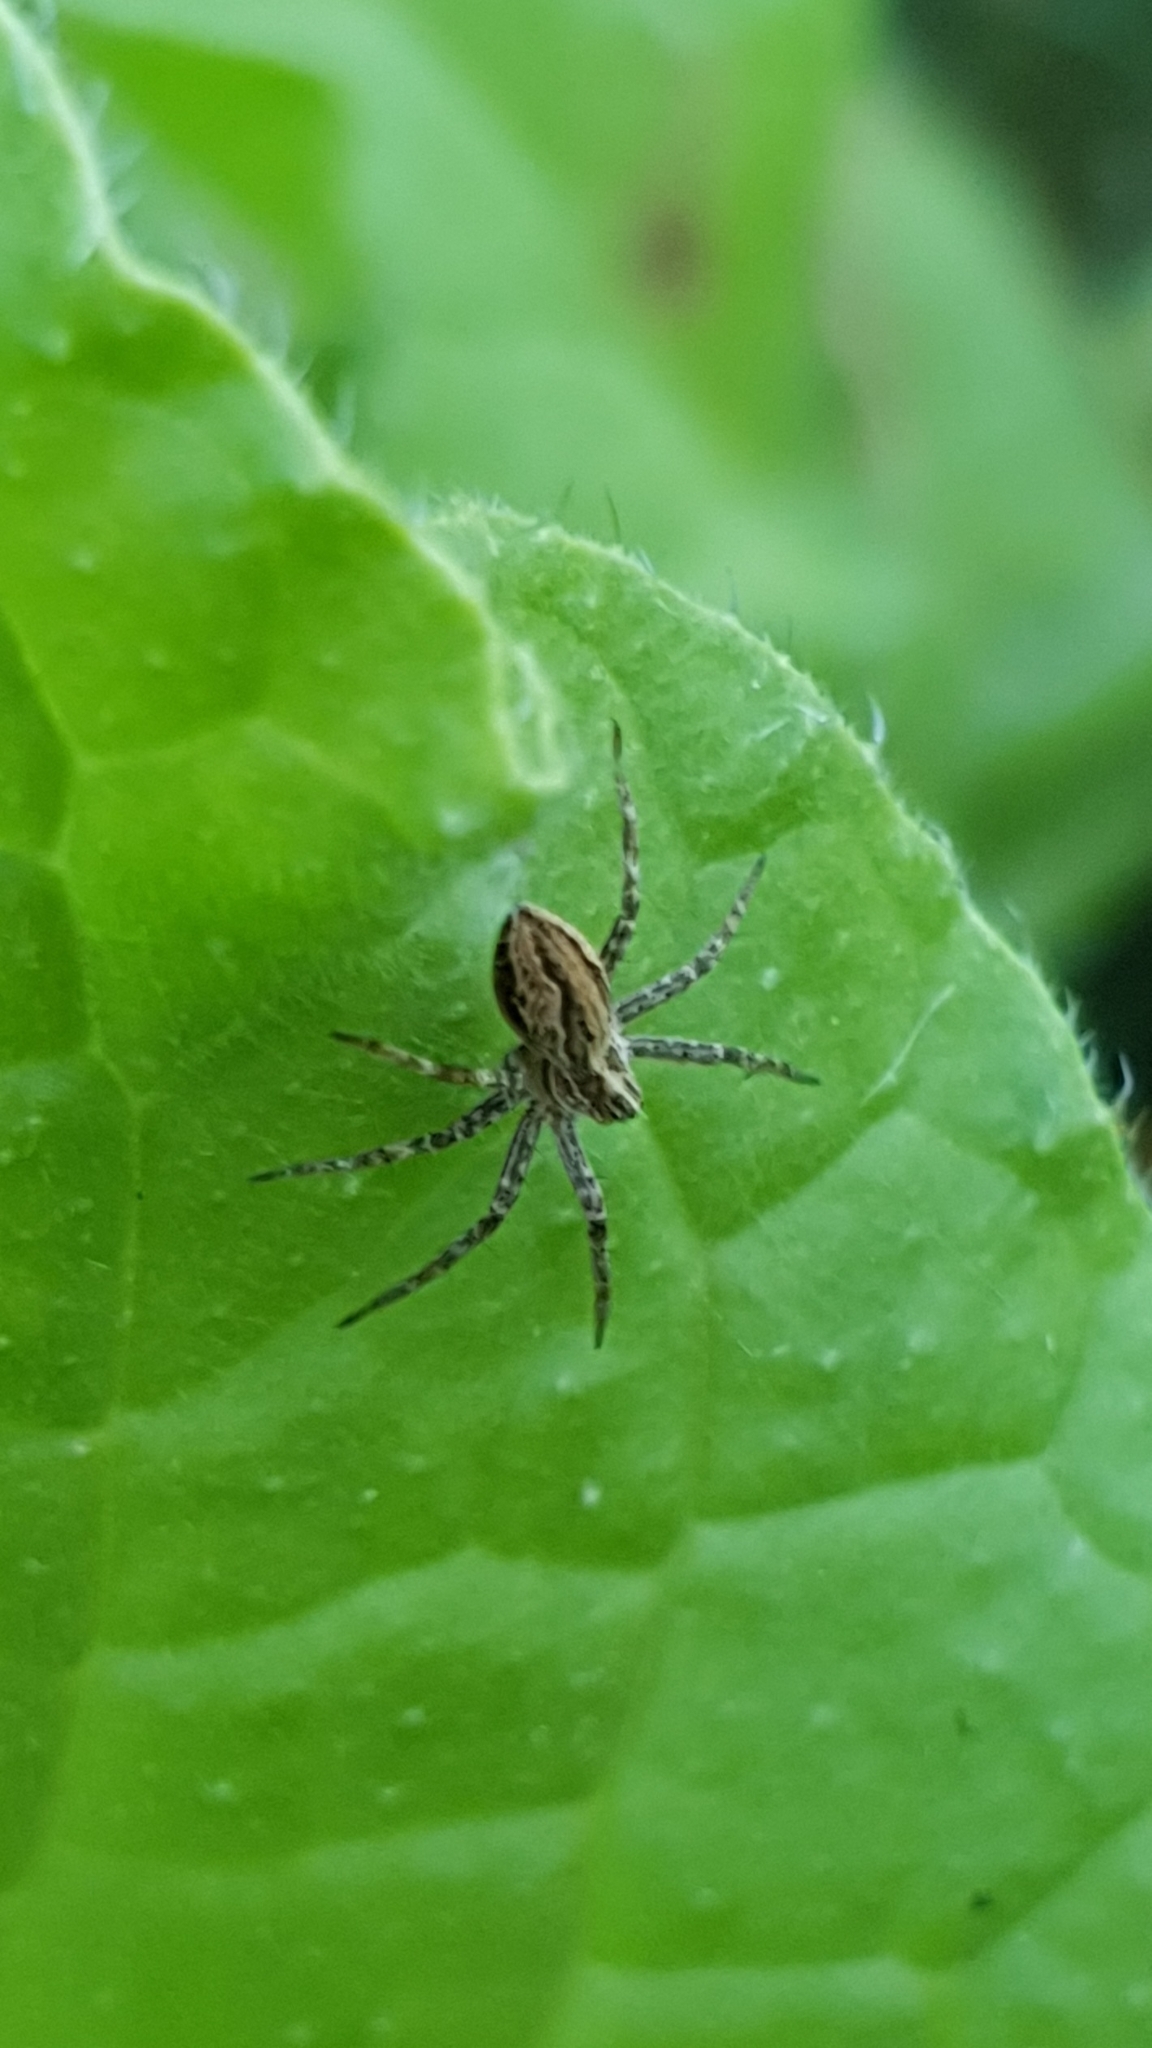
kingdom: Animalia
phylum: Arthropoda
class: Arachnida
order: Araneae
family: Pisauridae
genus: Pisaura
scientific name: Pisaura mirabilis
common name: Tent spider
